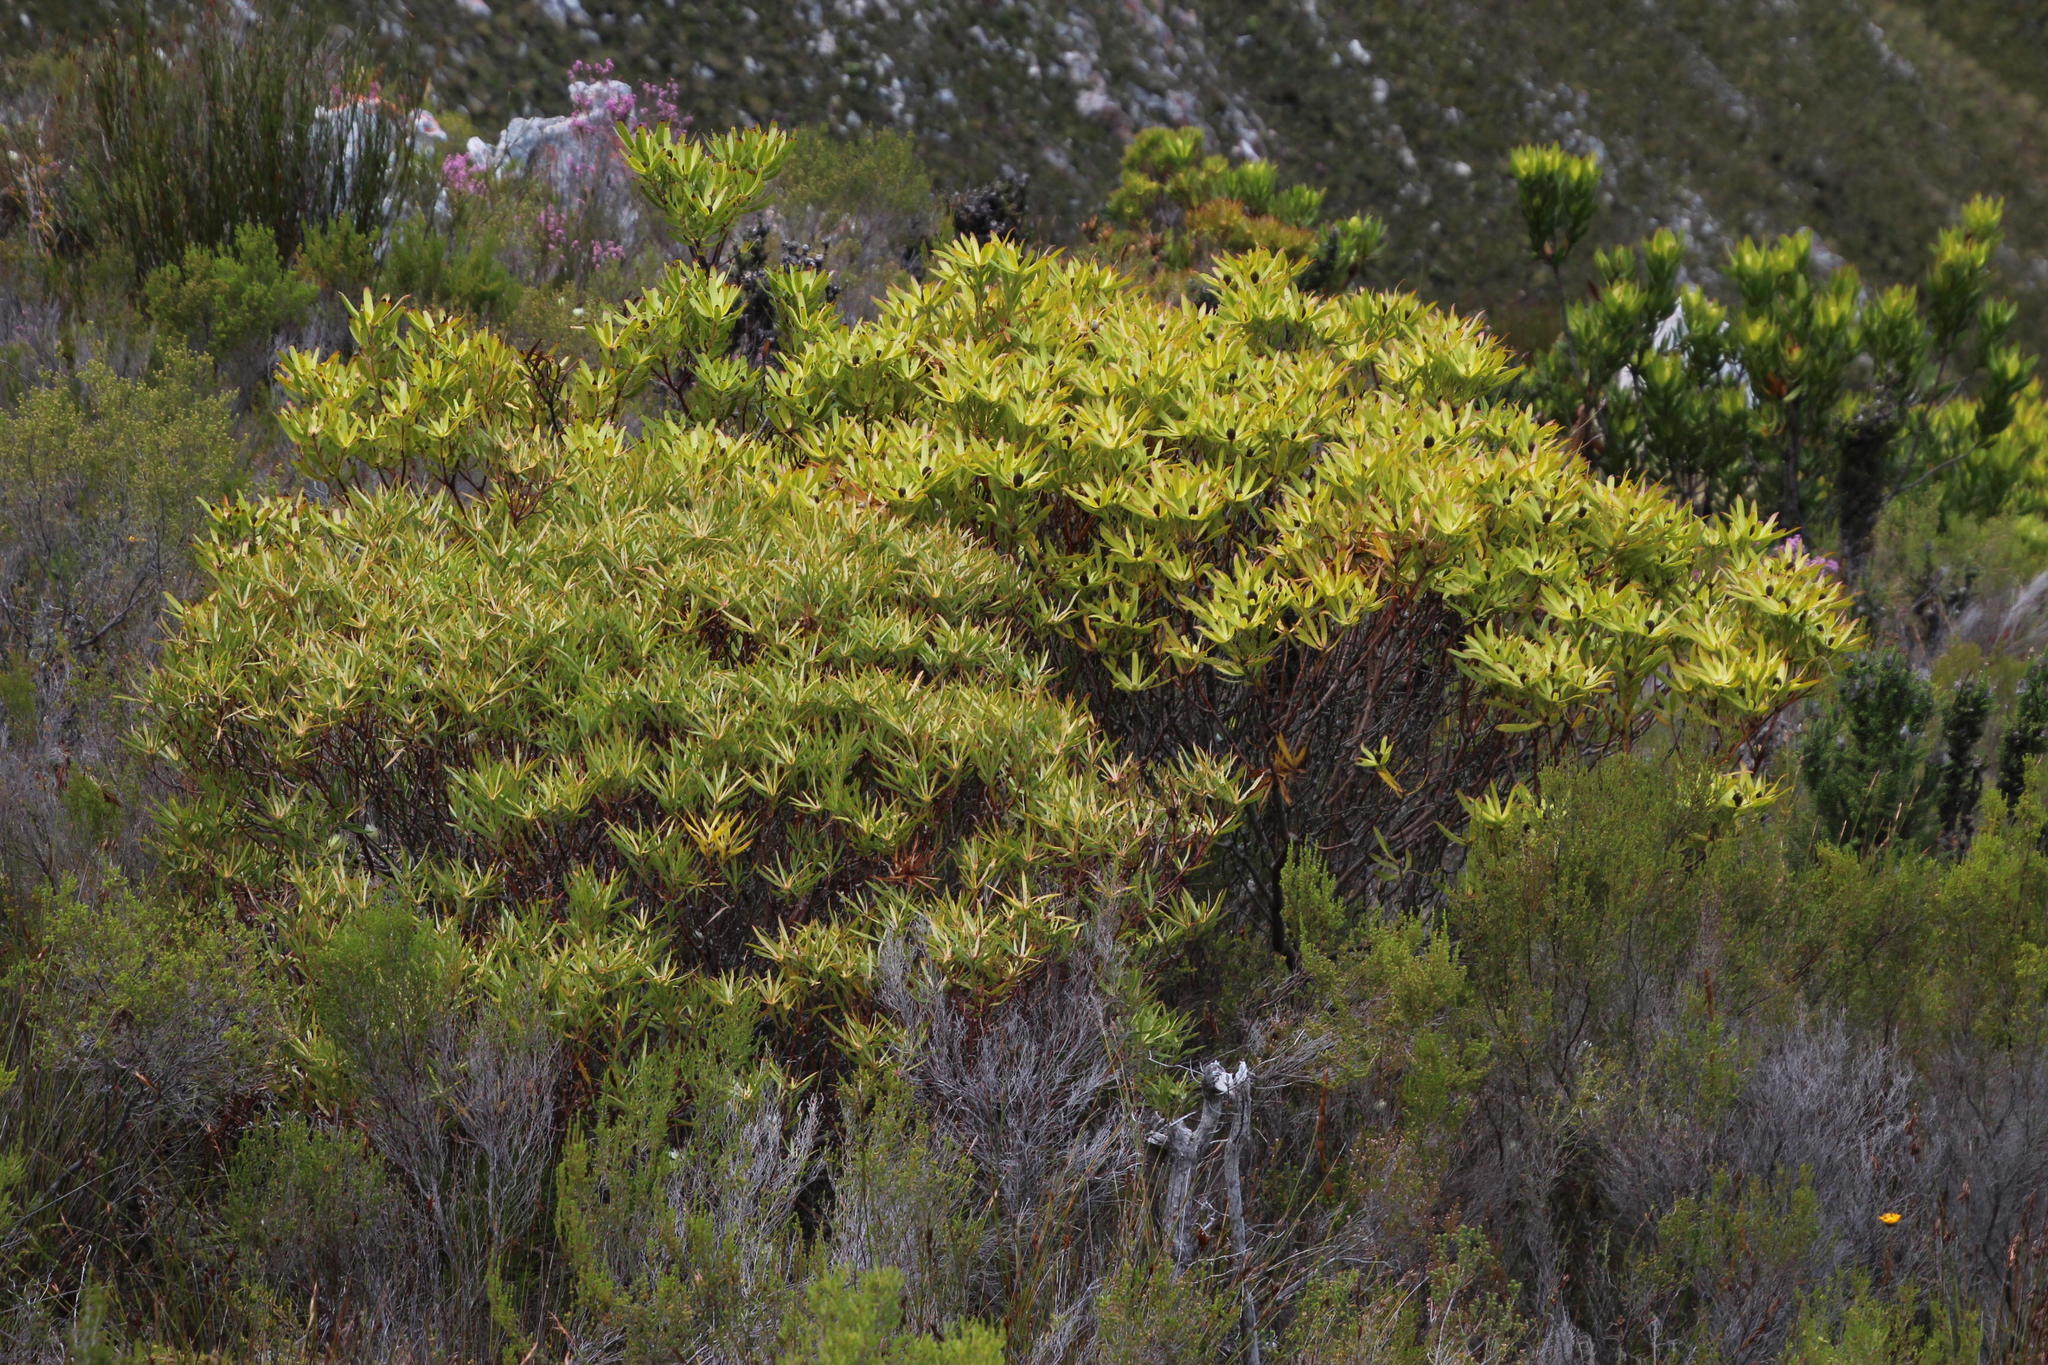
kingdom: Plantae
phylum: Tracheophyta
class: Magnoliopsida
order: Proteales
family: Proteaceae
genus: Leucadendron
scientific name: Leucadendron xanthoconus
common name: Sickle-leaf conebush
